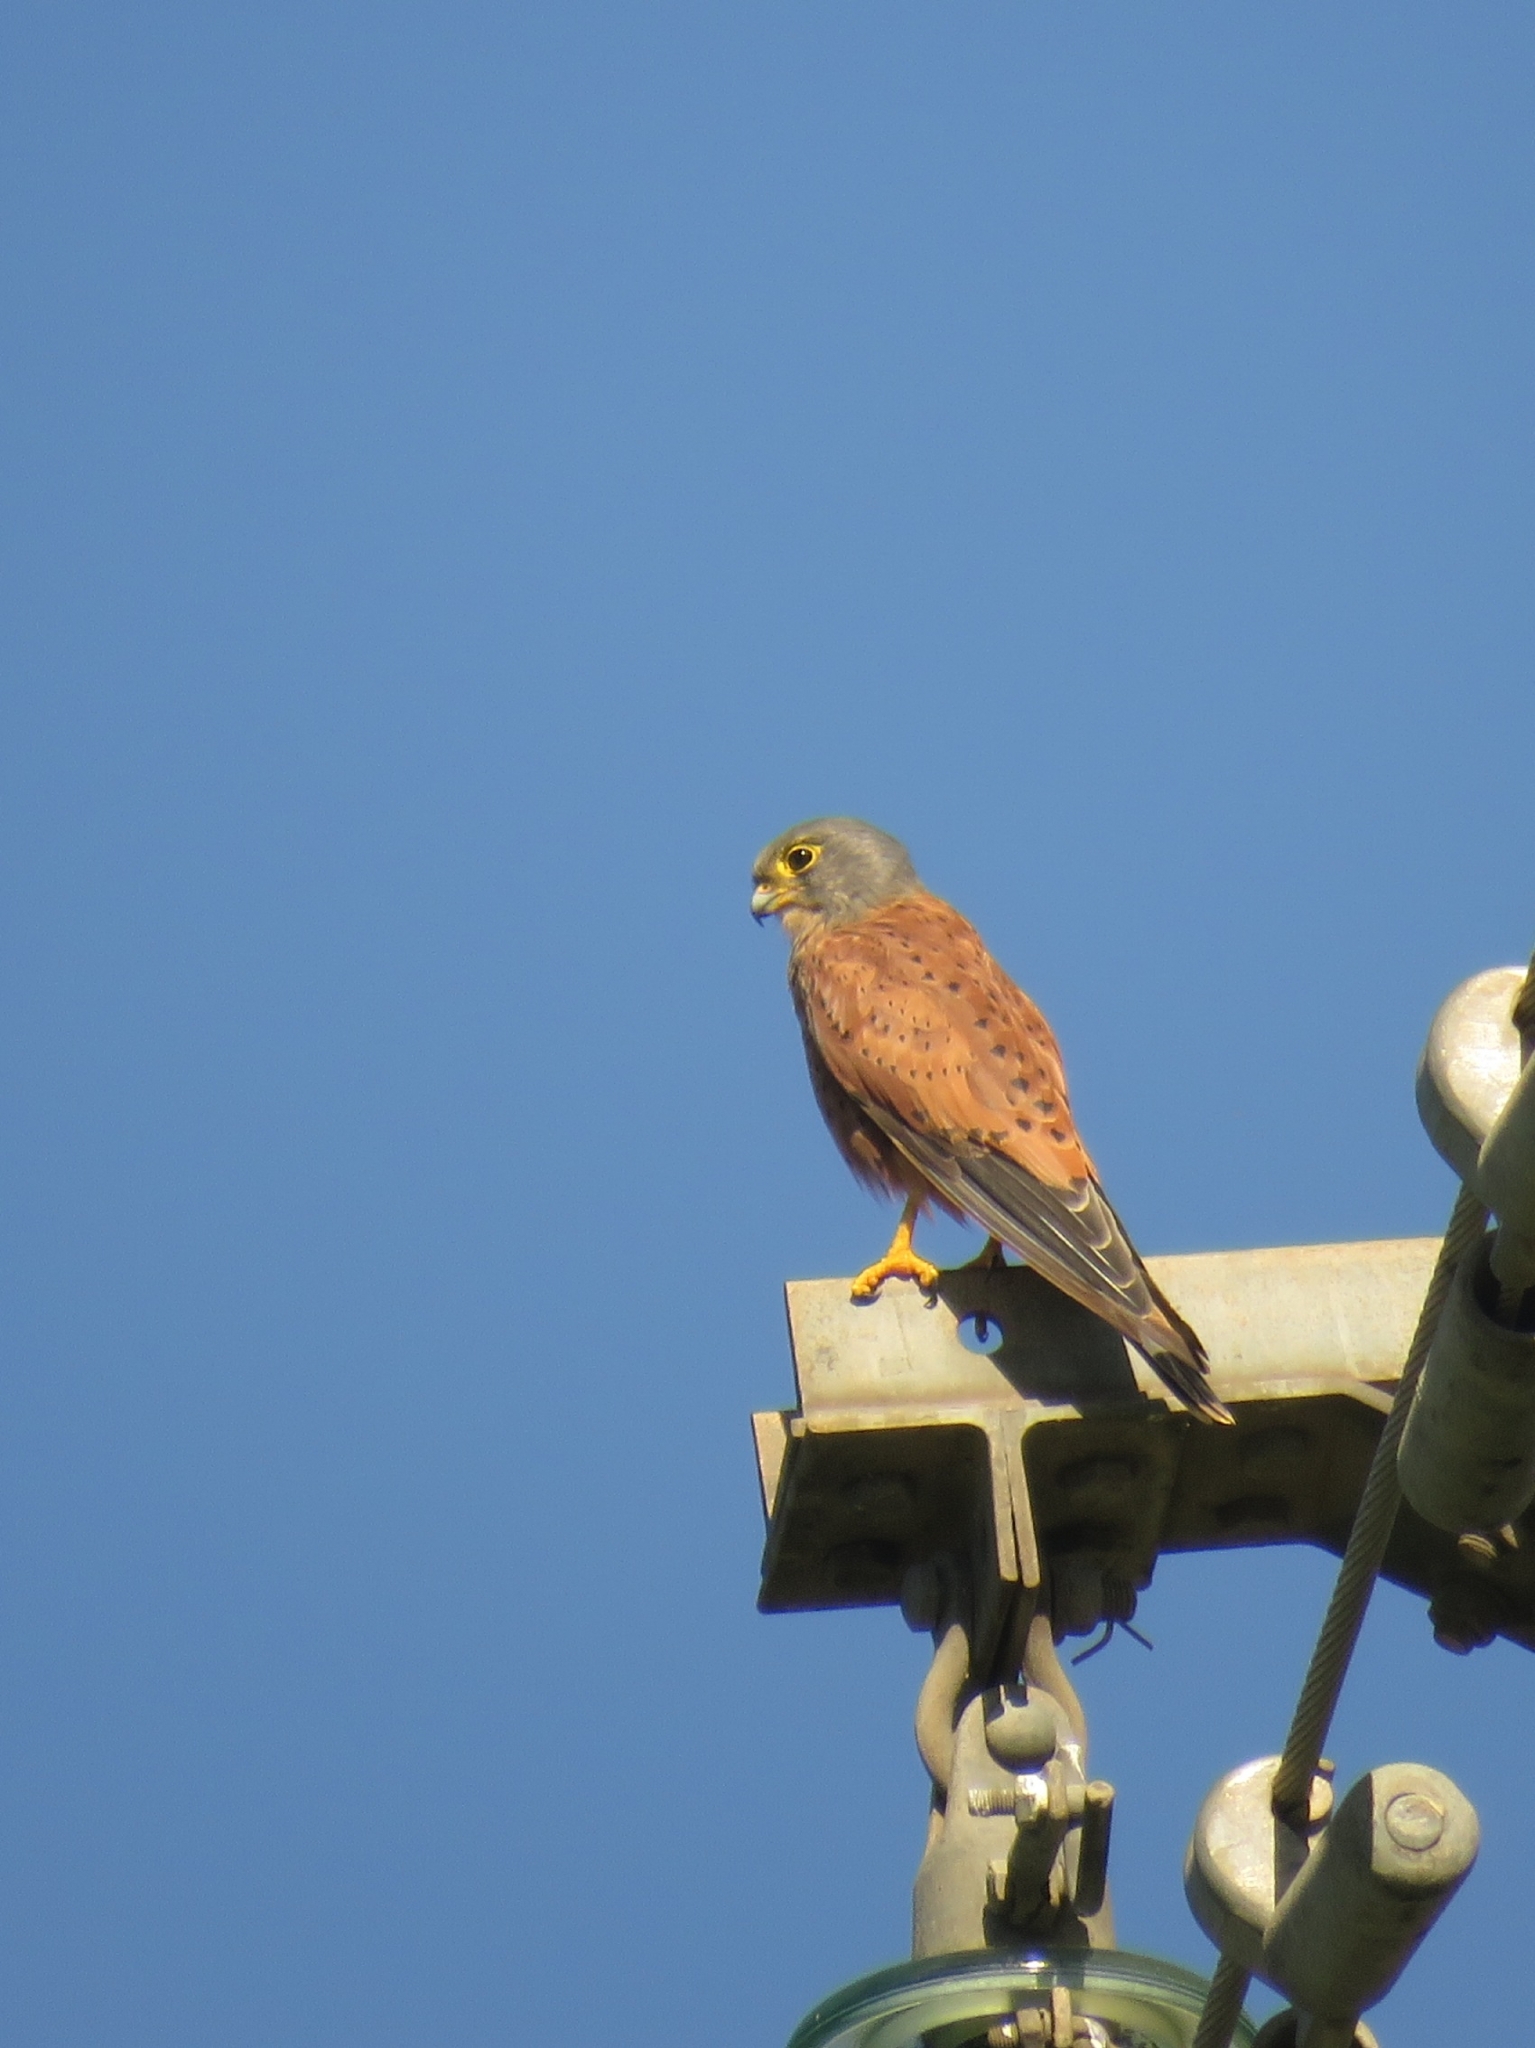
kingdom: Animalia
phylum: Chordata
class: Aves
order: Falconiformes
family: Falconidae
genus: Falco
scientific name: Falco rupicolus
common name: Rock kestrel
